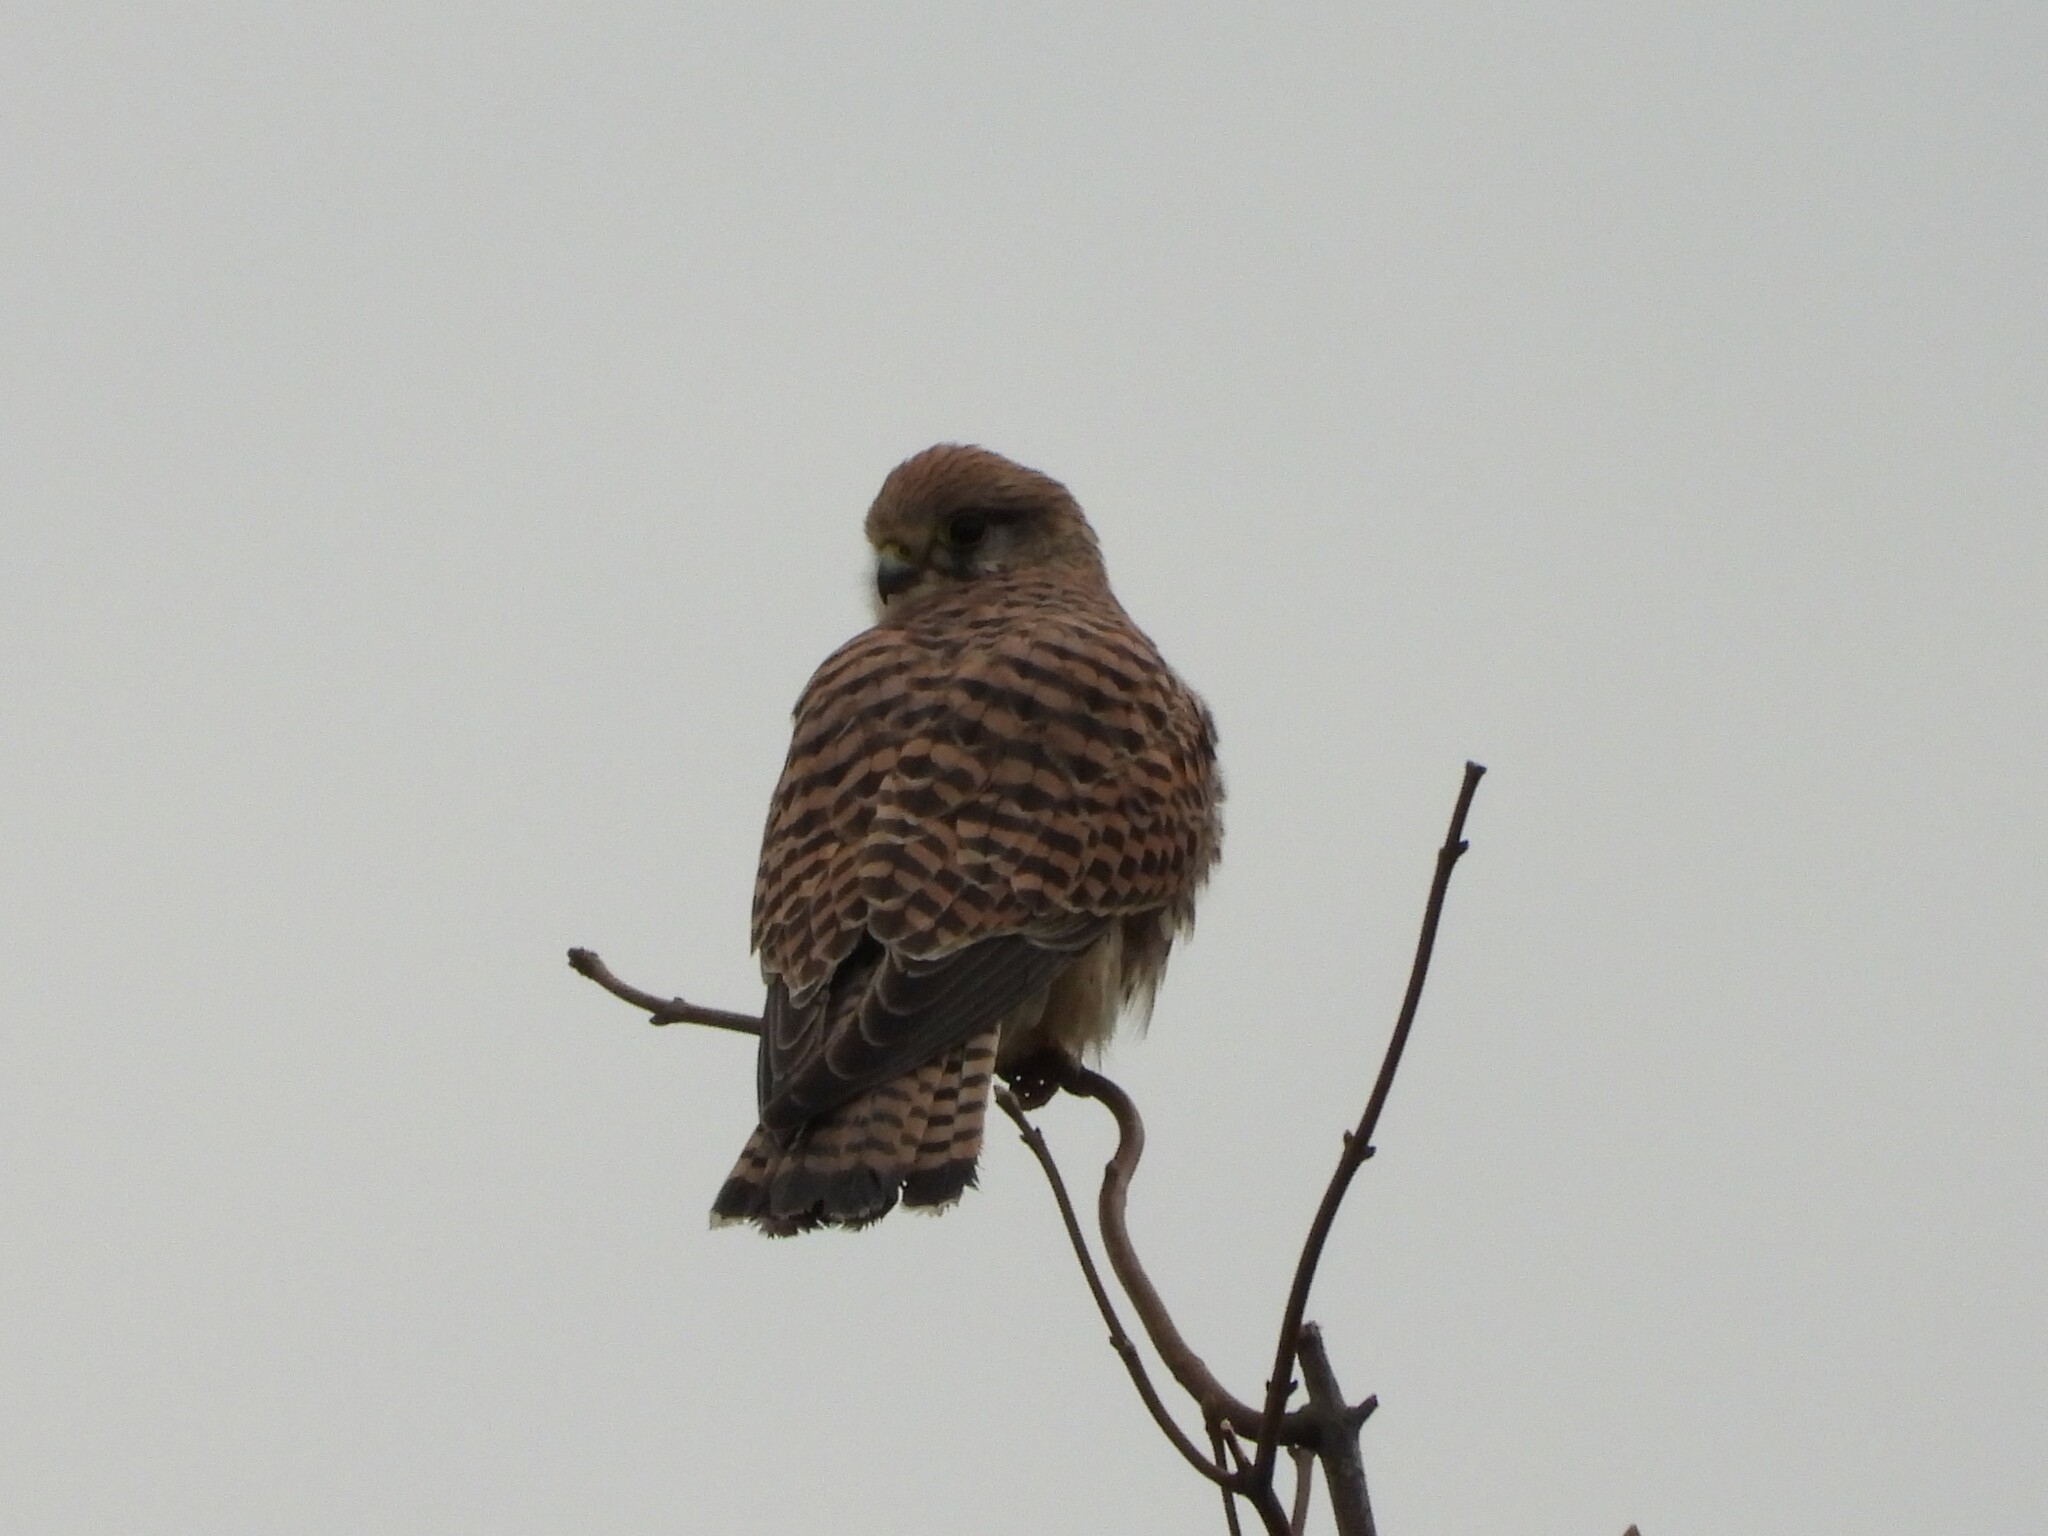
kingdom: Animalia
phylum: Chordata
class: Aves
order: Falconiformes
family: Falconidae
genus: Falco
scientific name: Falco tinnunculus
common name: Common kestrel
